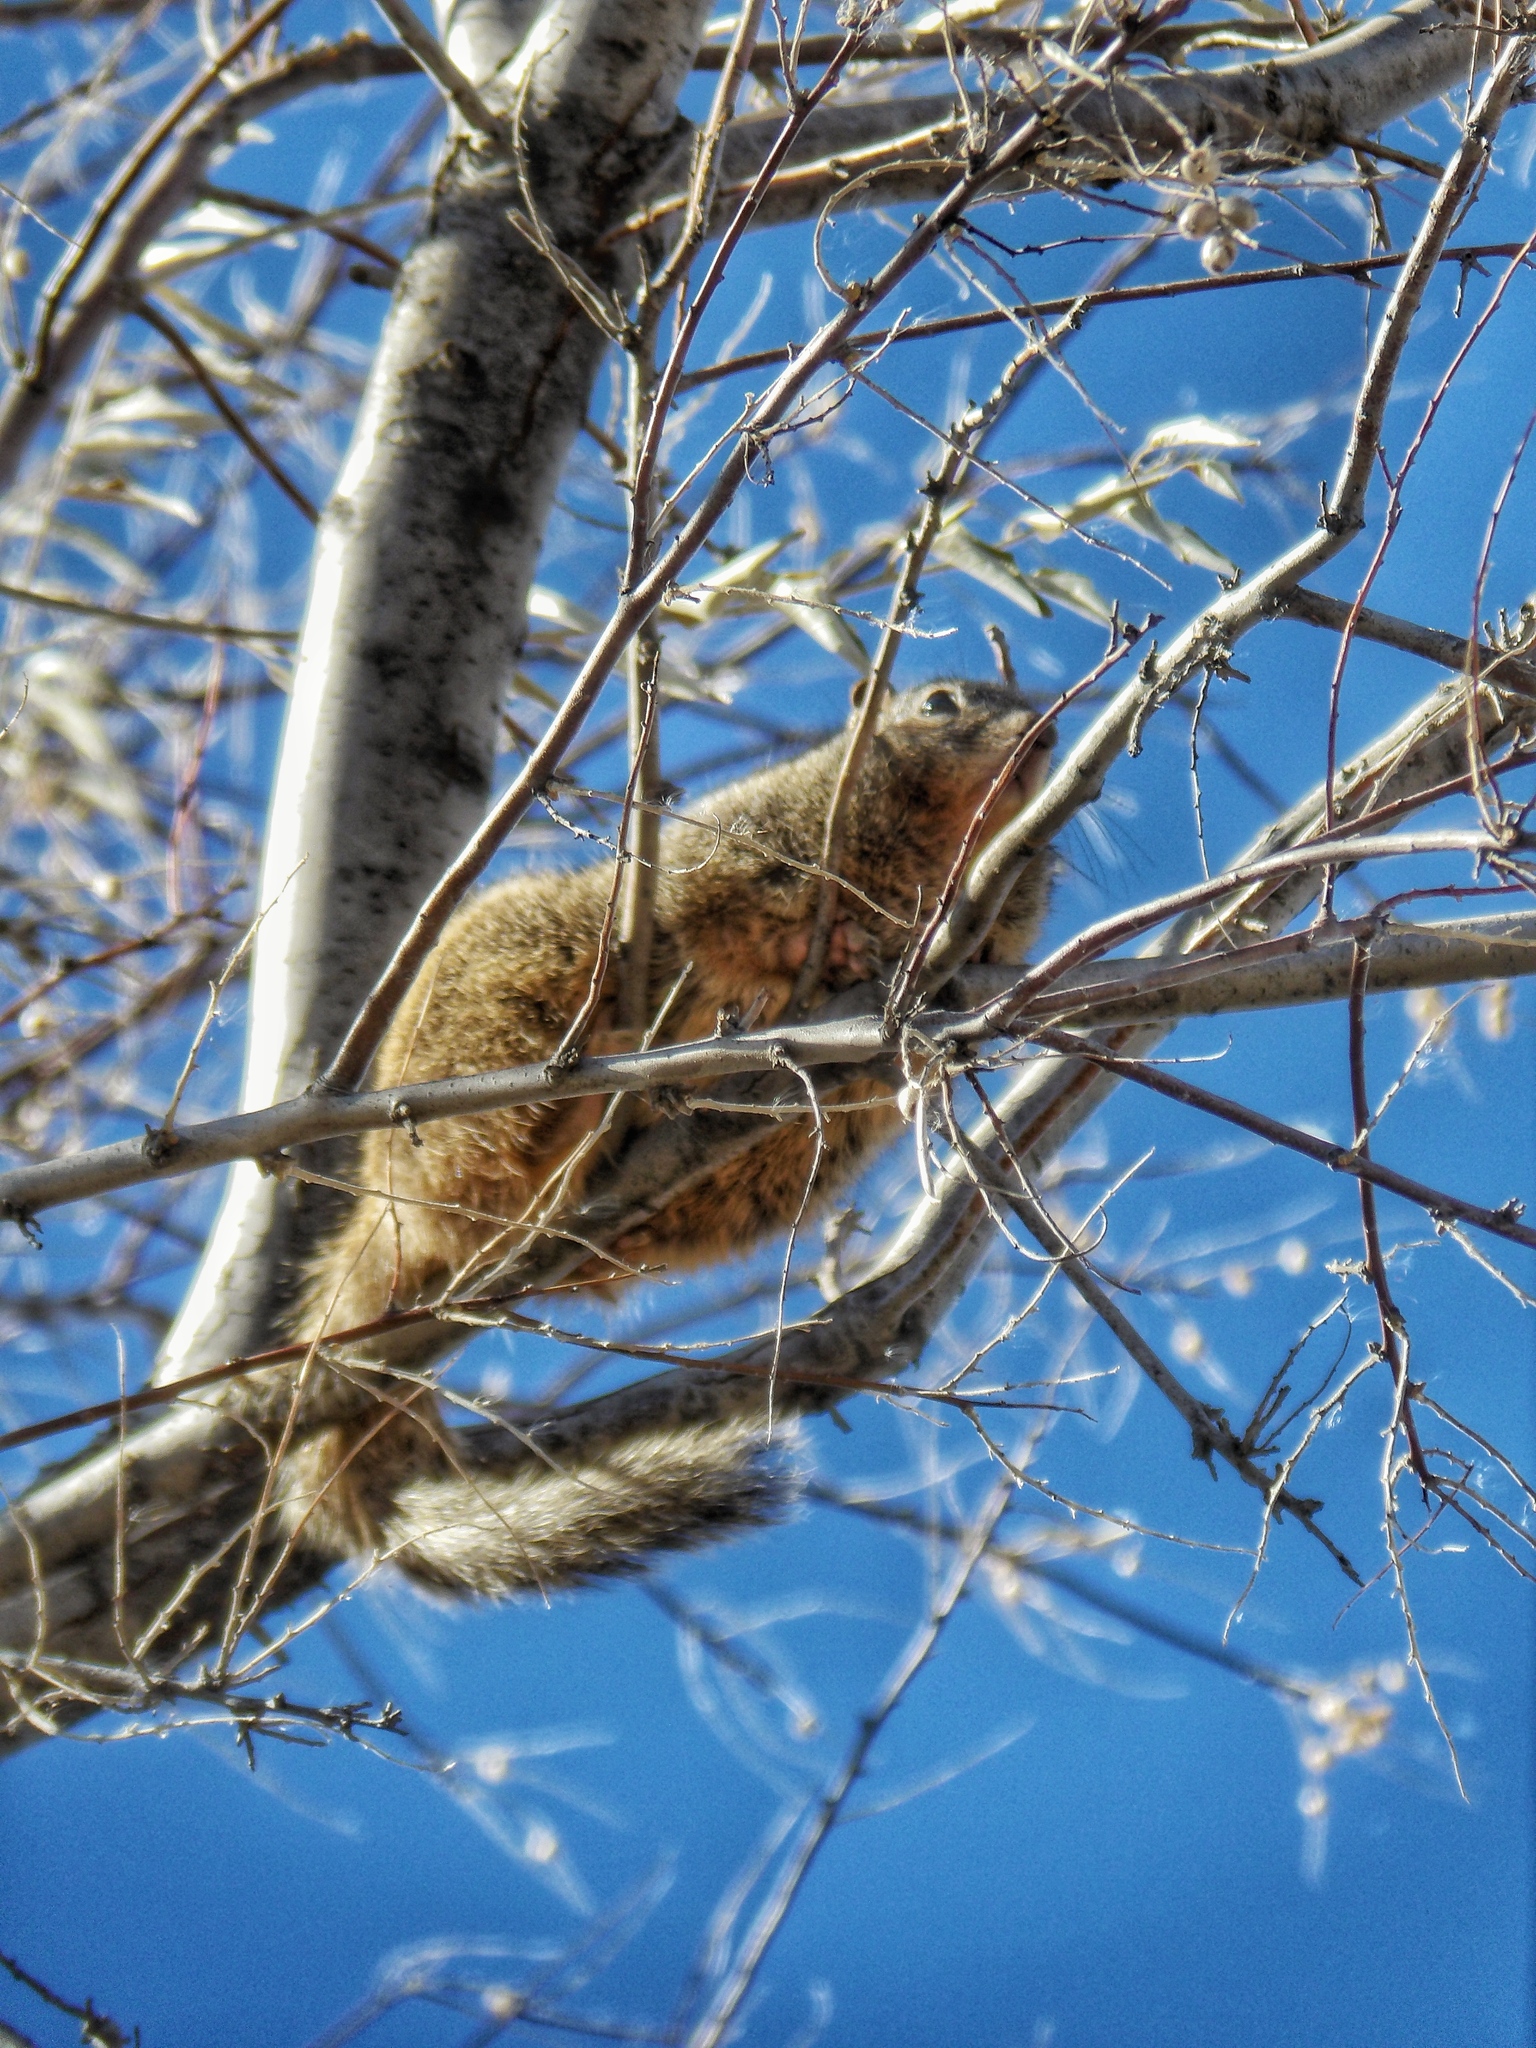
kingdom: Animalia
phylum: Chordata
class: Mammalia
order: Rodentia
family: Sciuridae
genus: Otospermophilus
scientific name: Otospermophilus variegatus
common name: Rock squirrel
